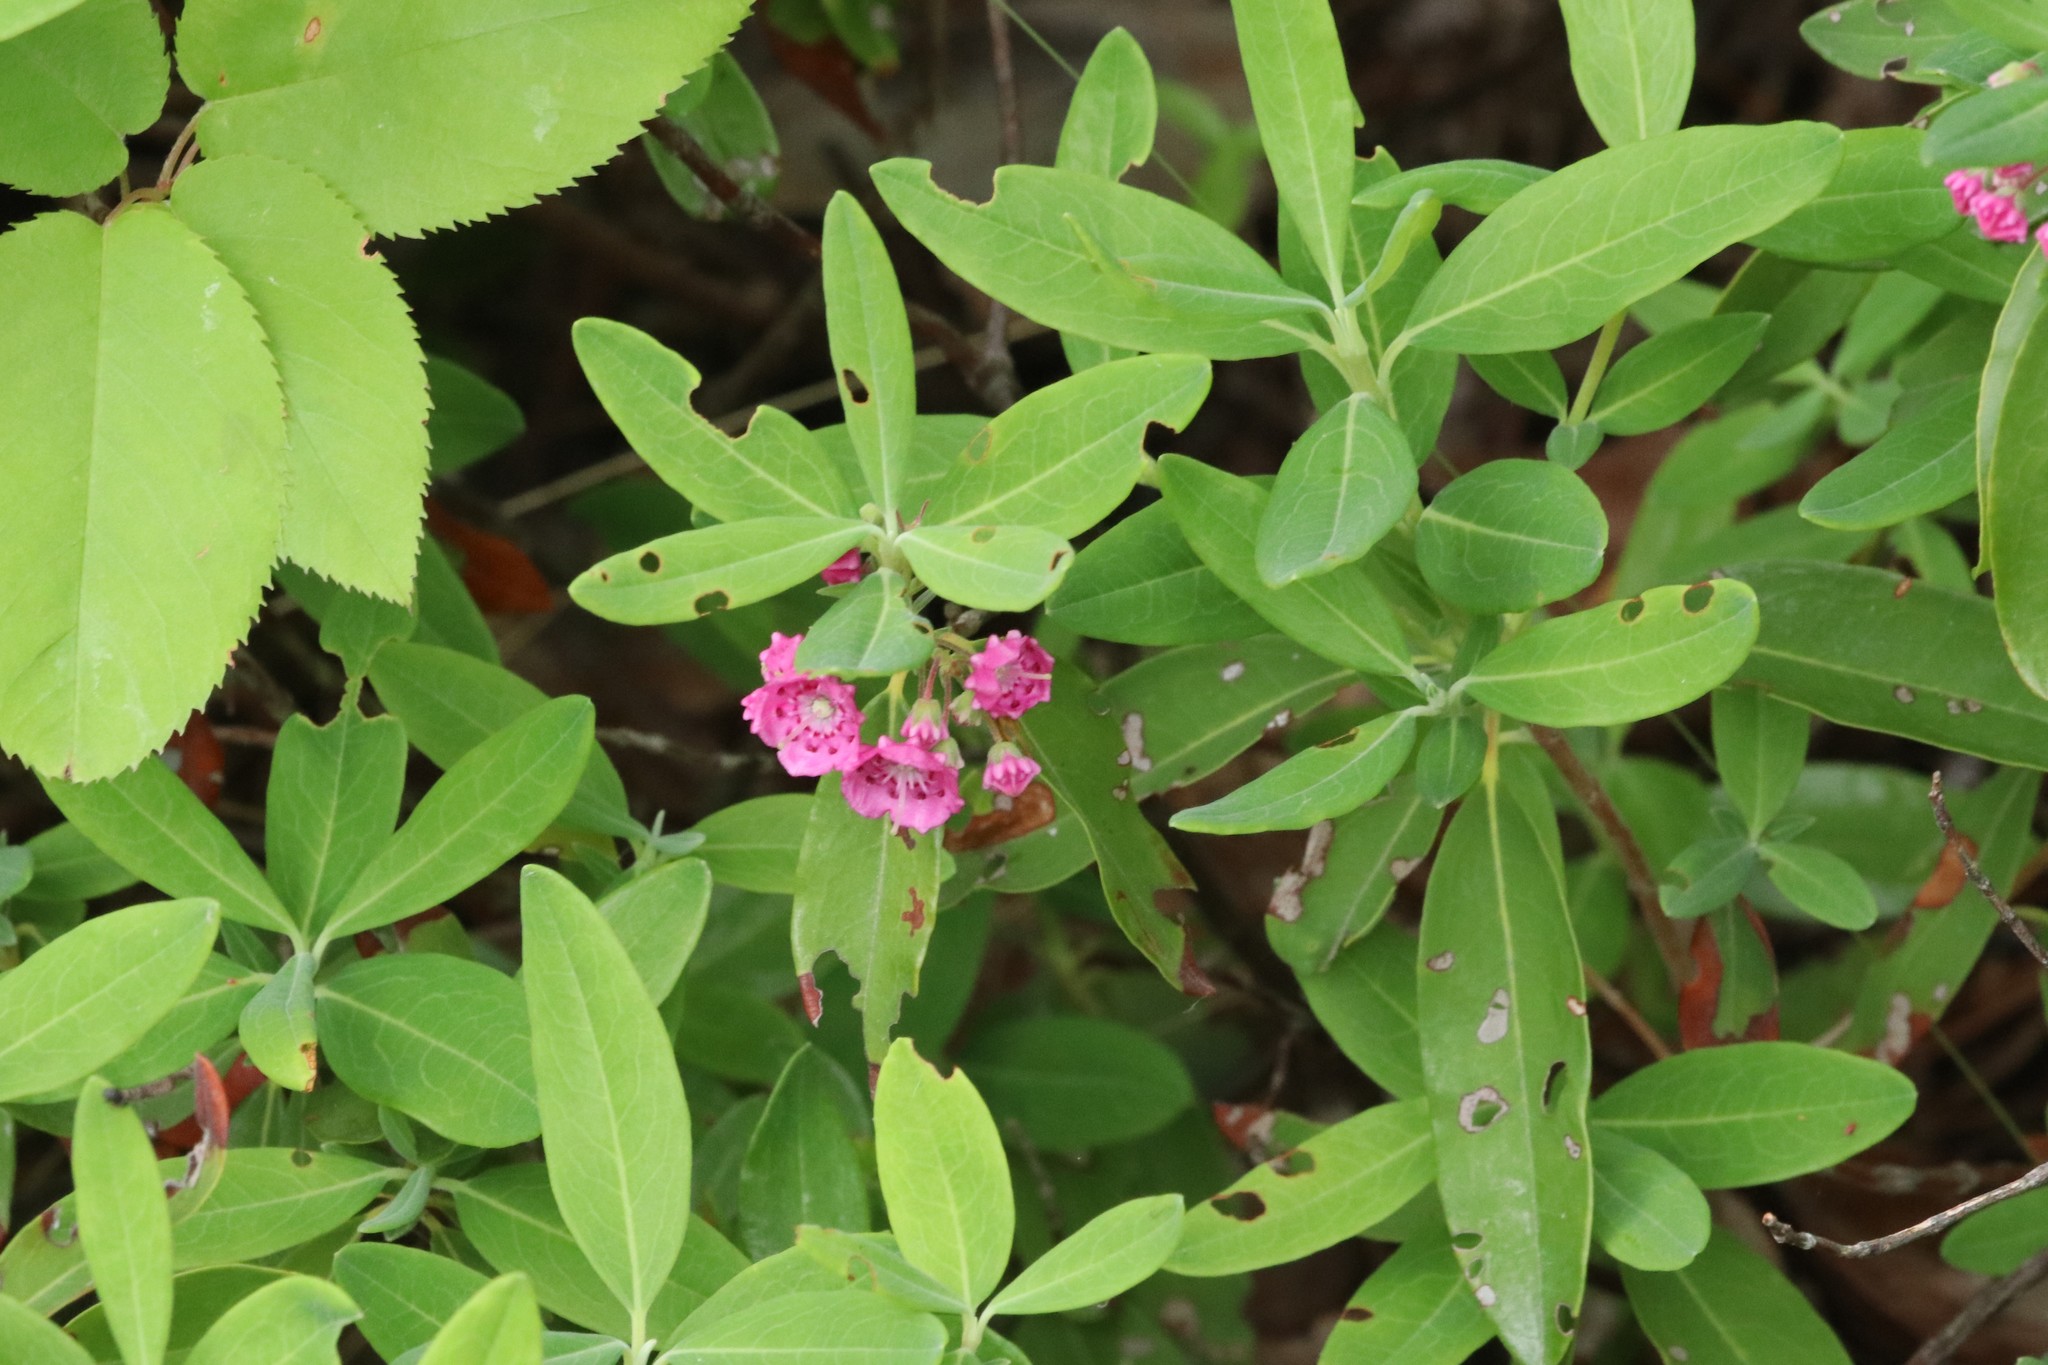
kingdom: Plantae
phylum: Tracheophyta
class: Magnoliopsida
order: Ericales
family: Ericaceae
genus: Kalmia
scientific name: Kalmia angustifolia
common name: Sheep-laurel
